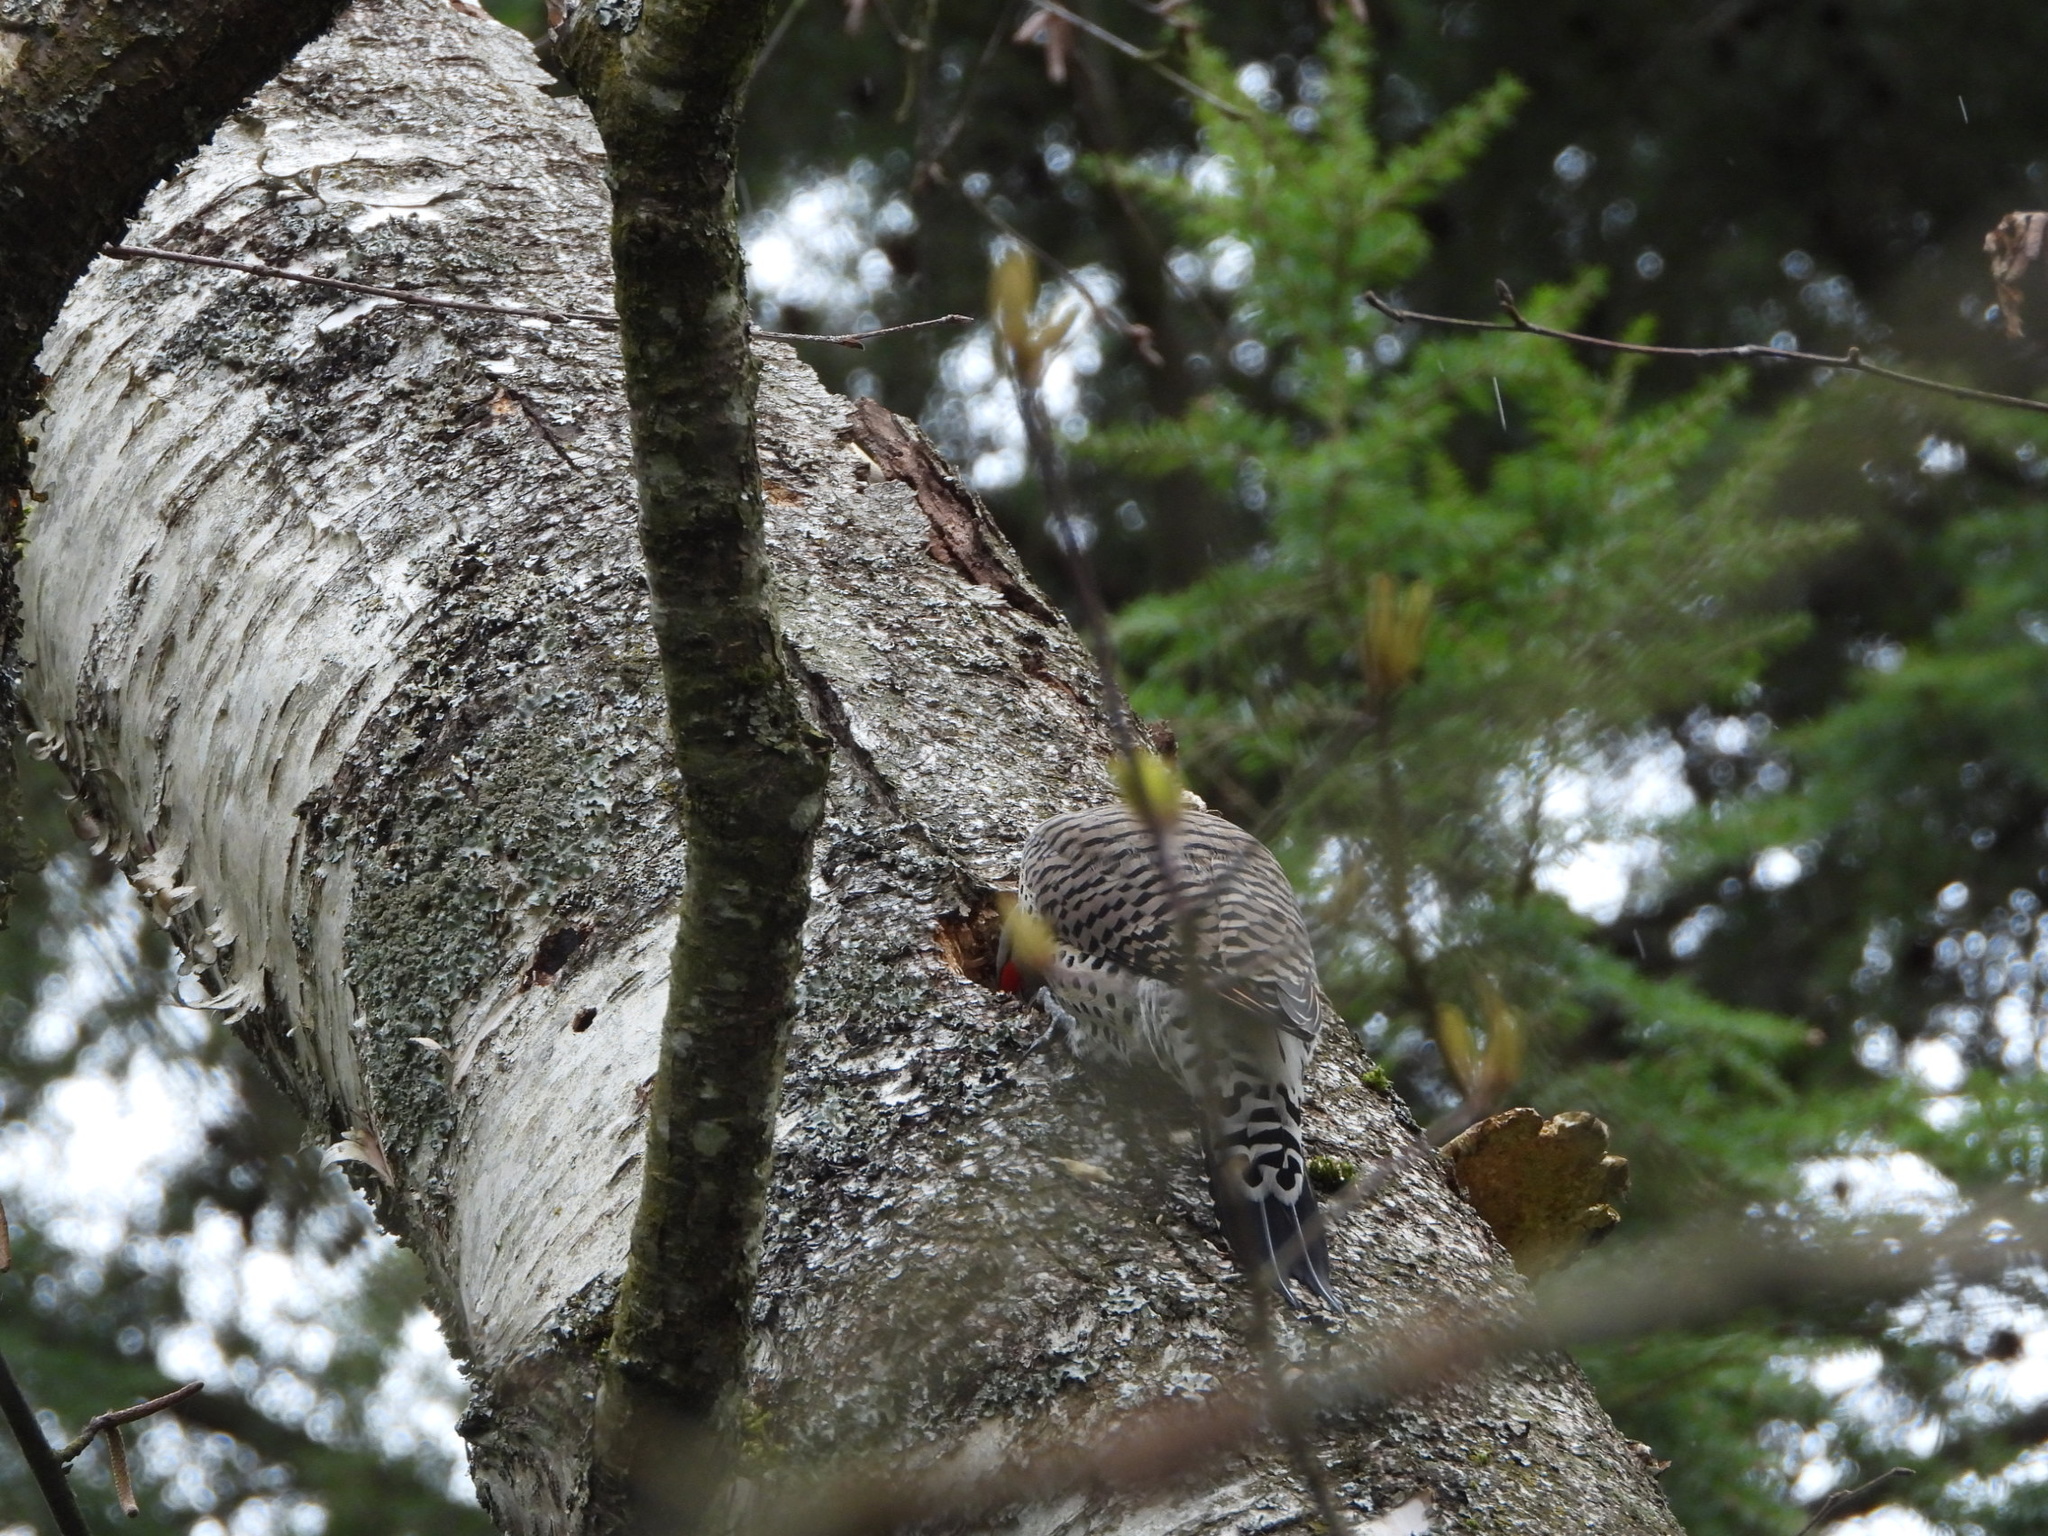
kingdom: Animalia
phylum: Chordata
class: Aves
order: Piciformes
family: Picidae
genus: Colaptes
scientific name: Colaptes auratus
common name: Northern flicker
